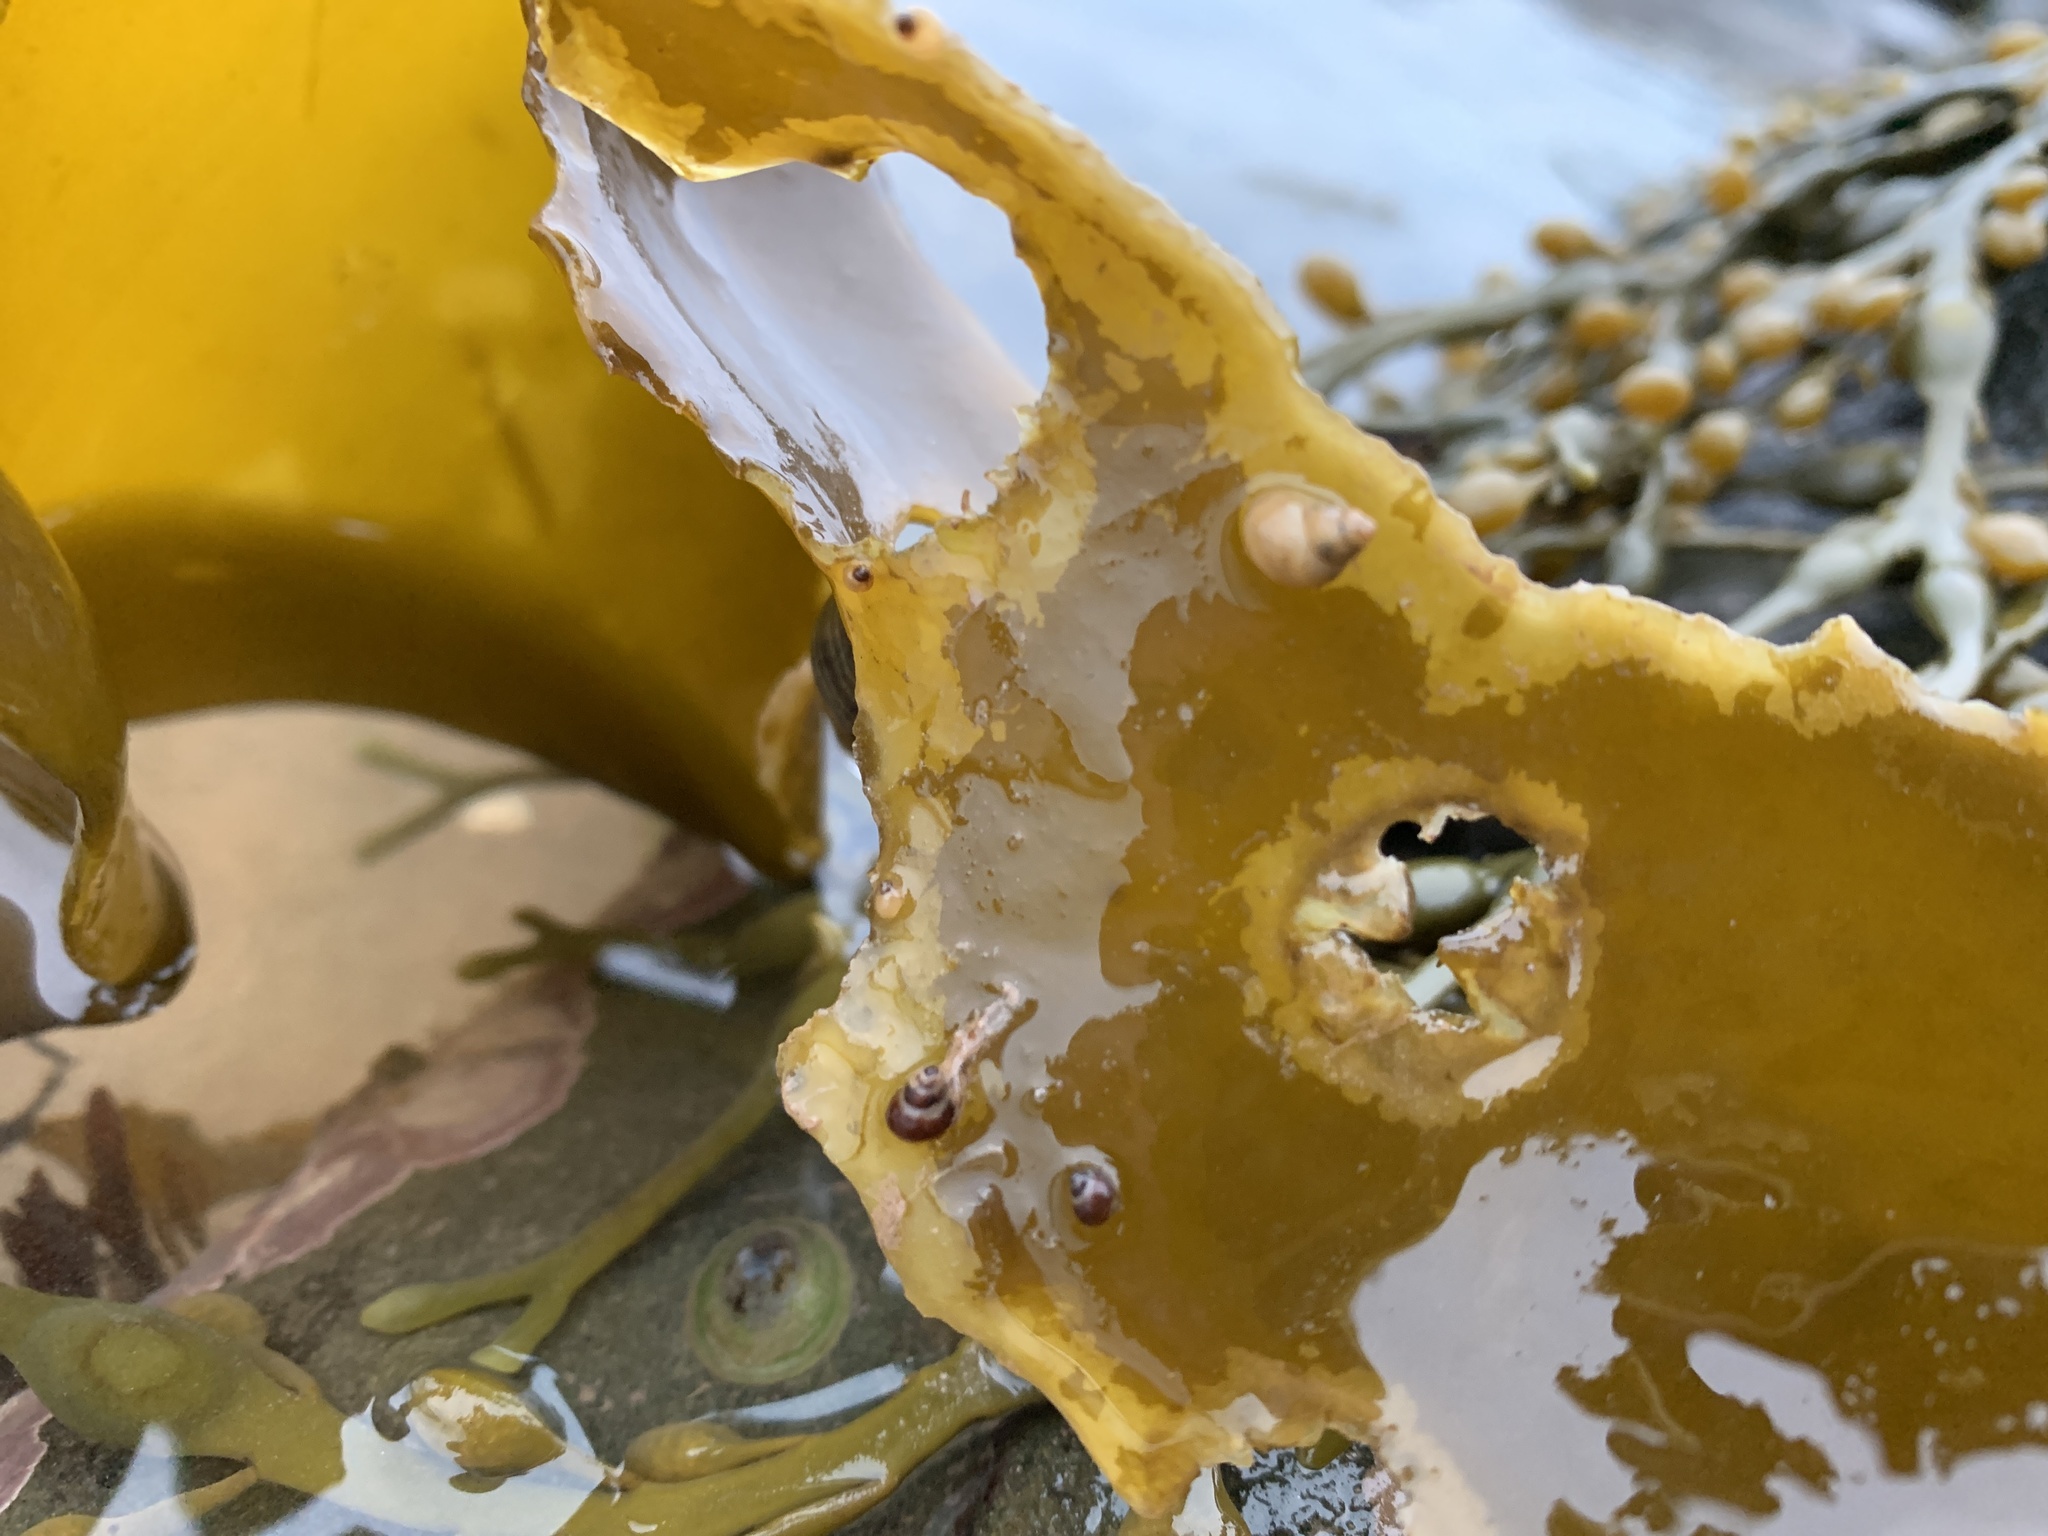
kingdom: Animalia
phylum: Mollusca
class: Gastropoda
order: Littorinimorpha
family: Littorinidae
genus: Lacuna
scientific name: Lacuna vincta
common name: Banded chink shell
